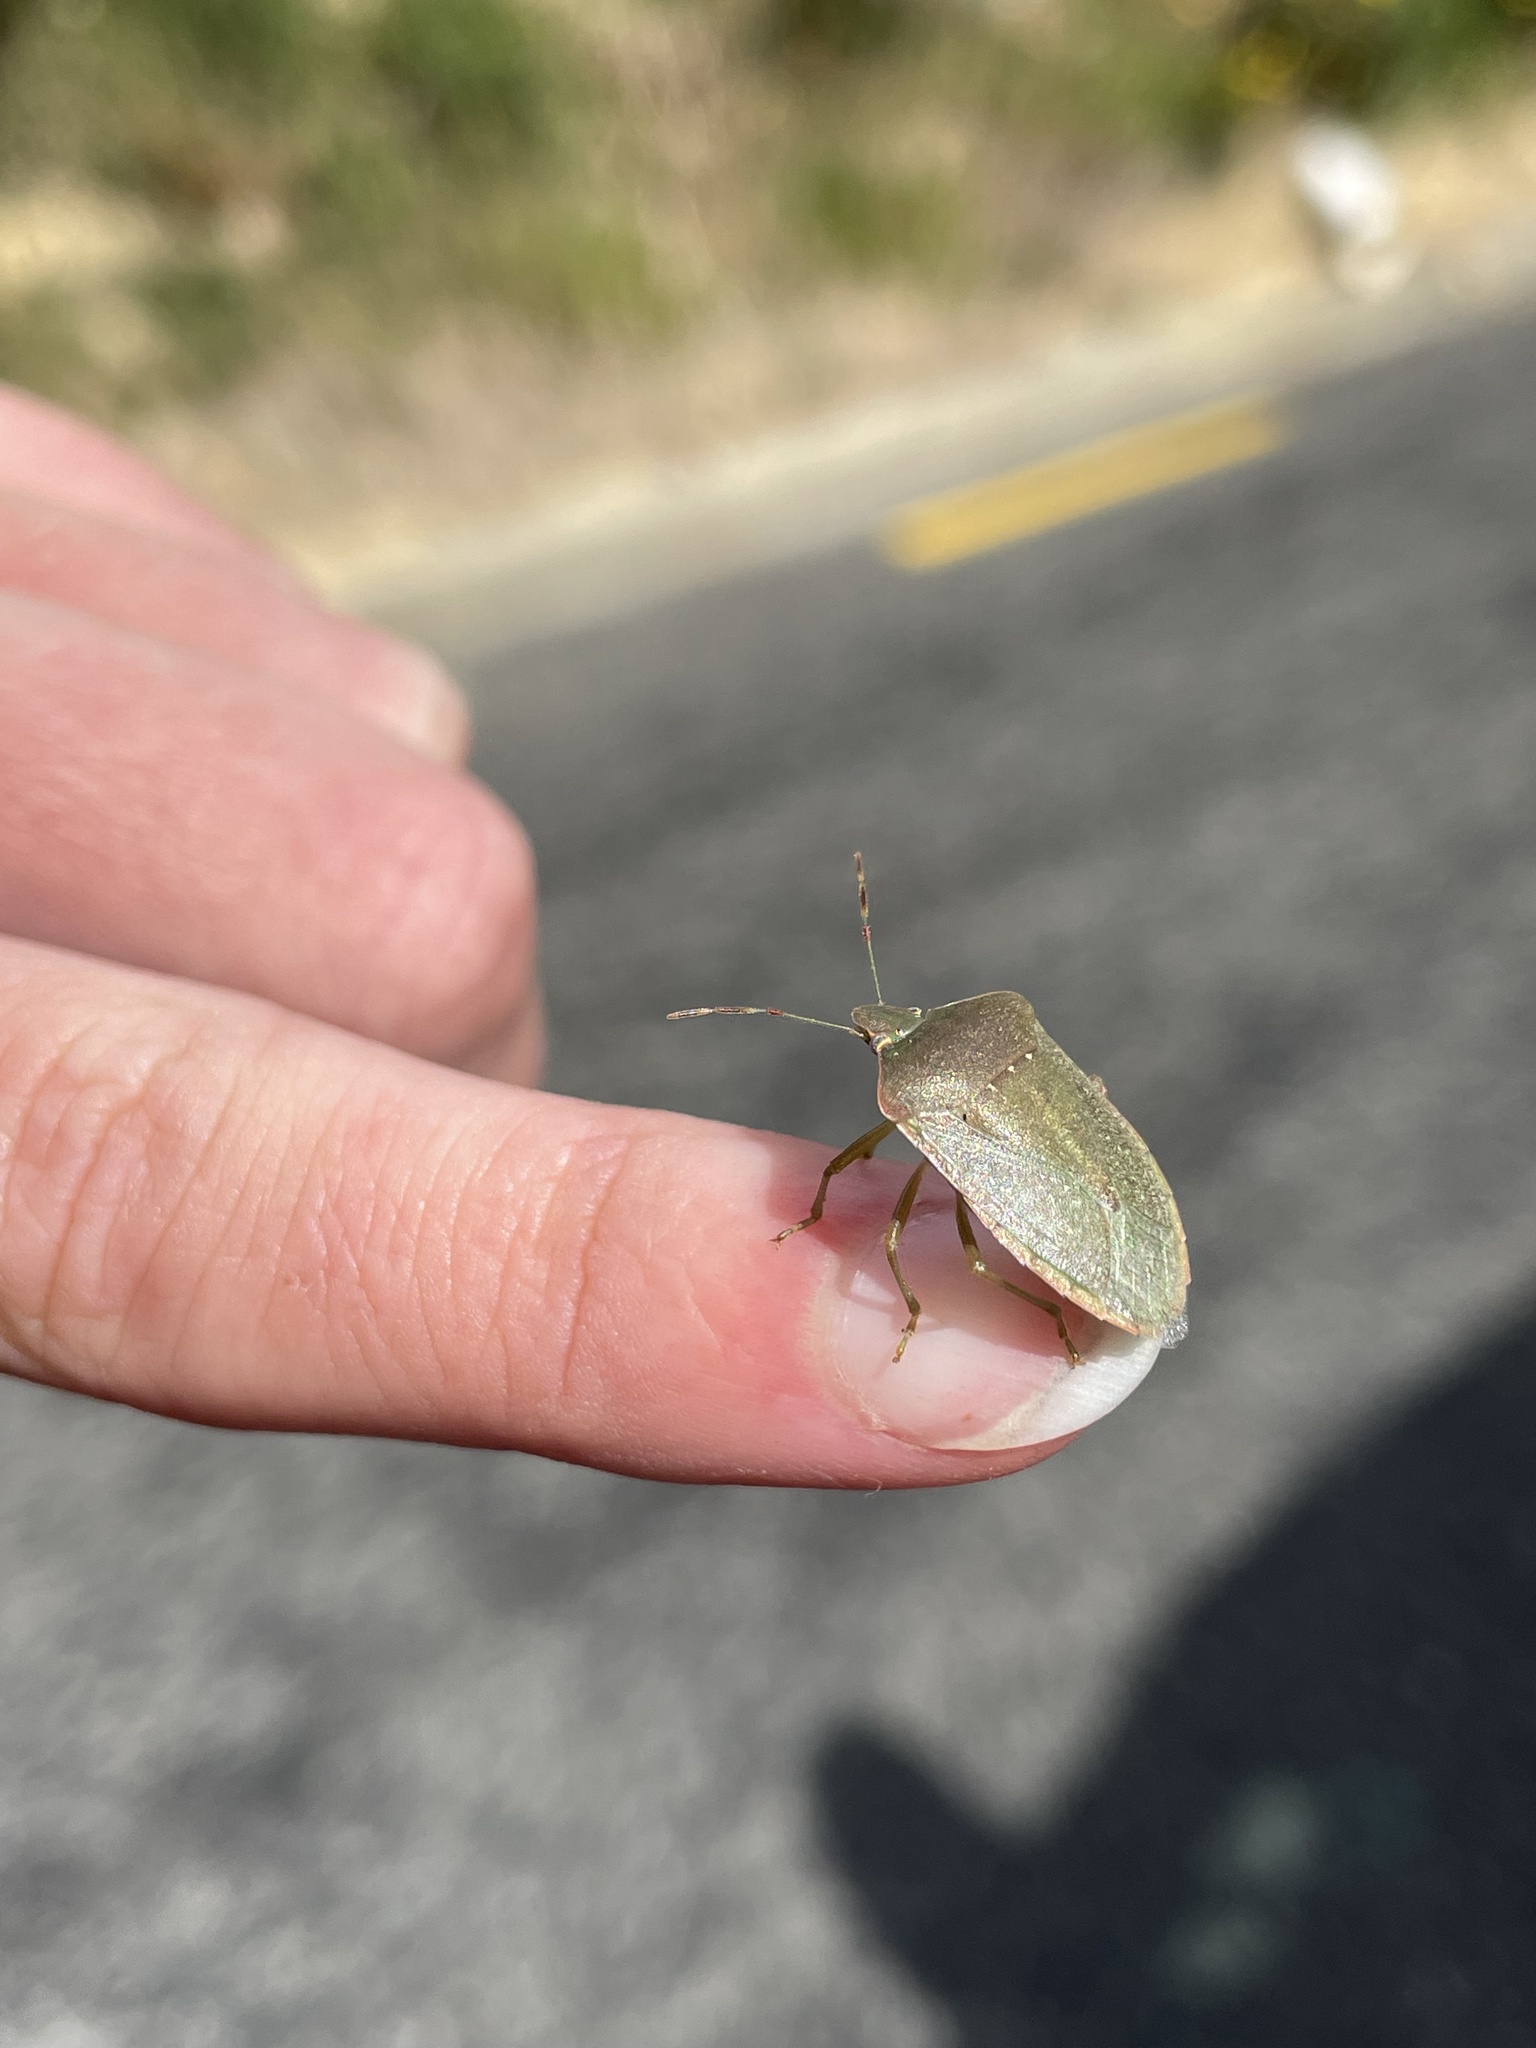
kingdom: Animalia
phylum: Arthropoda
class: Insecta
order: Hemiptera
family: Pentatomidae
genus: Nezara
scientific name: Nezara viridula
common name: Southern green stink bug
